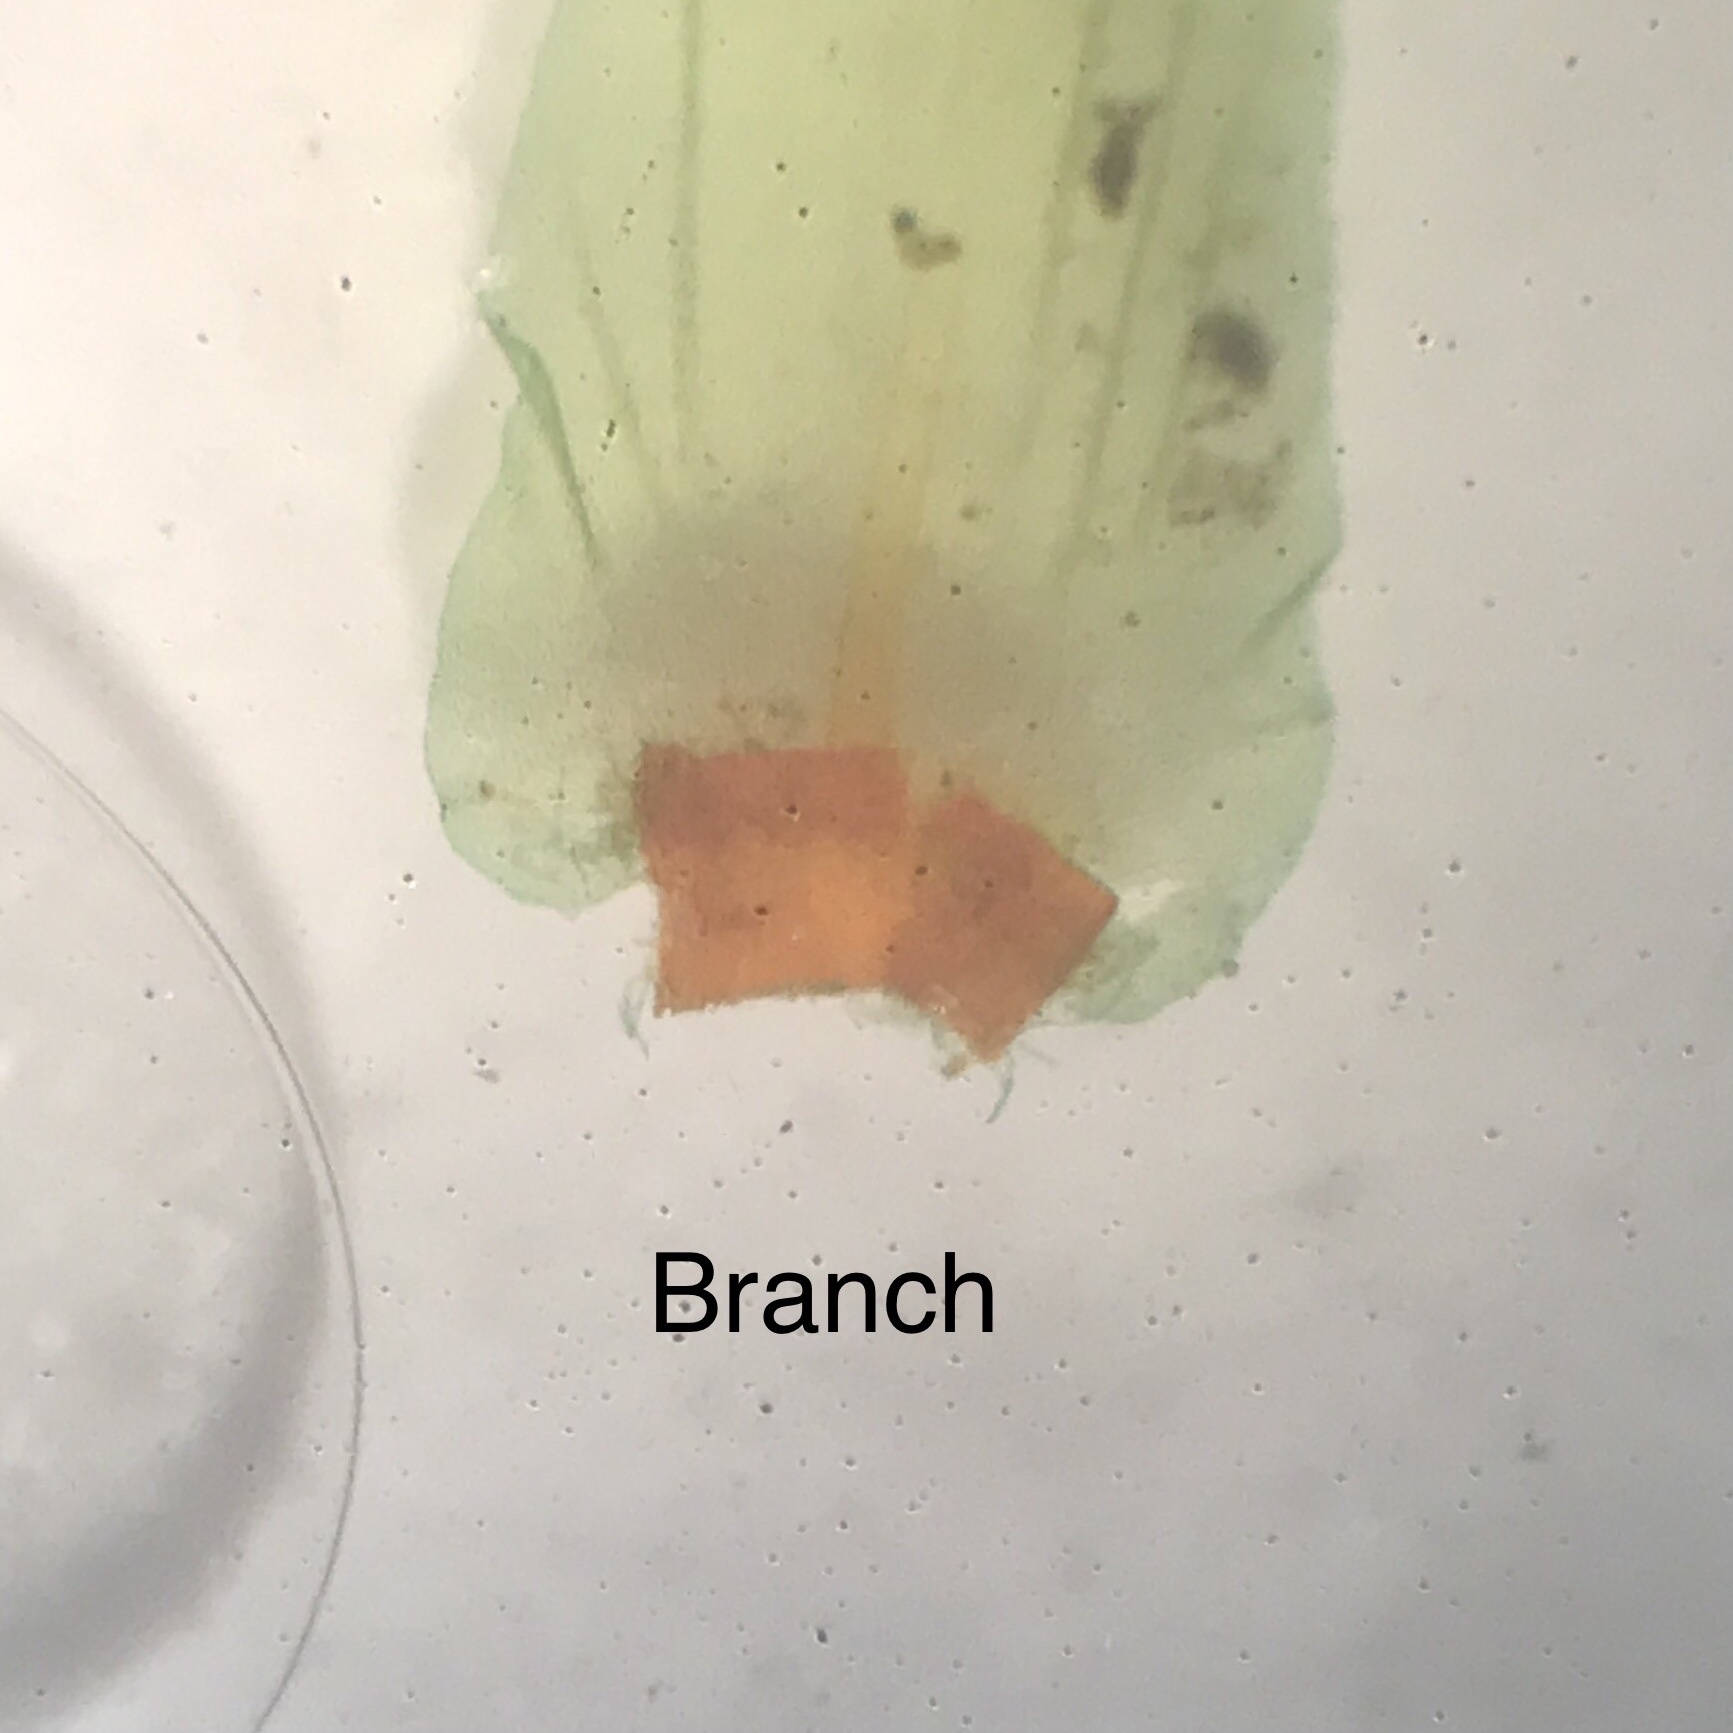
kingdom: Plantae
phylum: Bryophyta
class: Bryopsida
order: Hypnales
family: Climaciaceae
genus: Climacium
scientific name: Climacium americanum
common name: American tree moss
